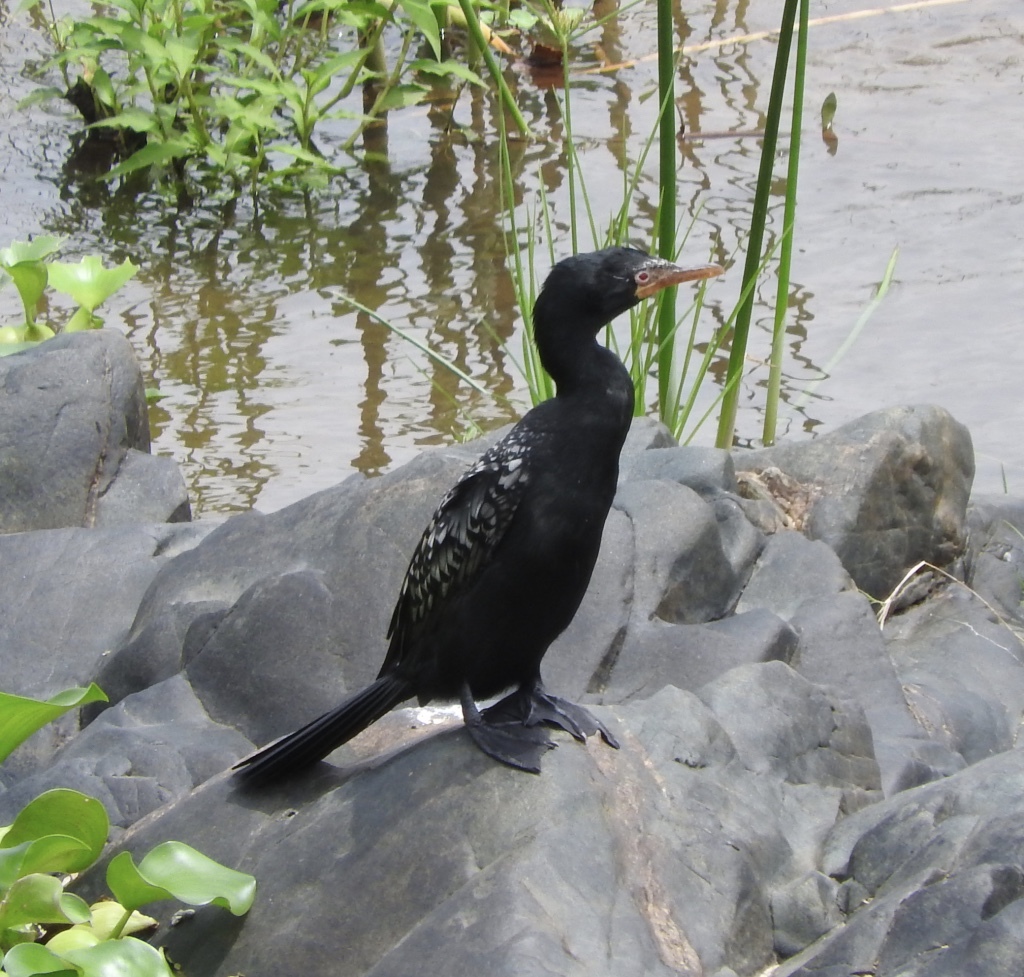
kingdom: Animalia
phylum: Chordata
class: Aves
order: Suliformes
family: Phalacrocoracidae
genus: Microcarbo
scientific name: Microcarbo africanus
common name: Long-tailed cormorant
